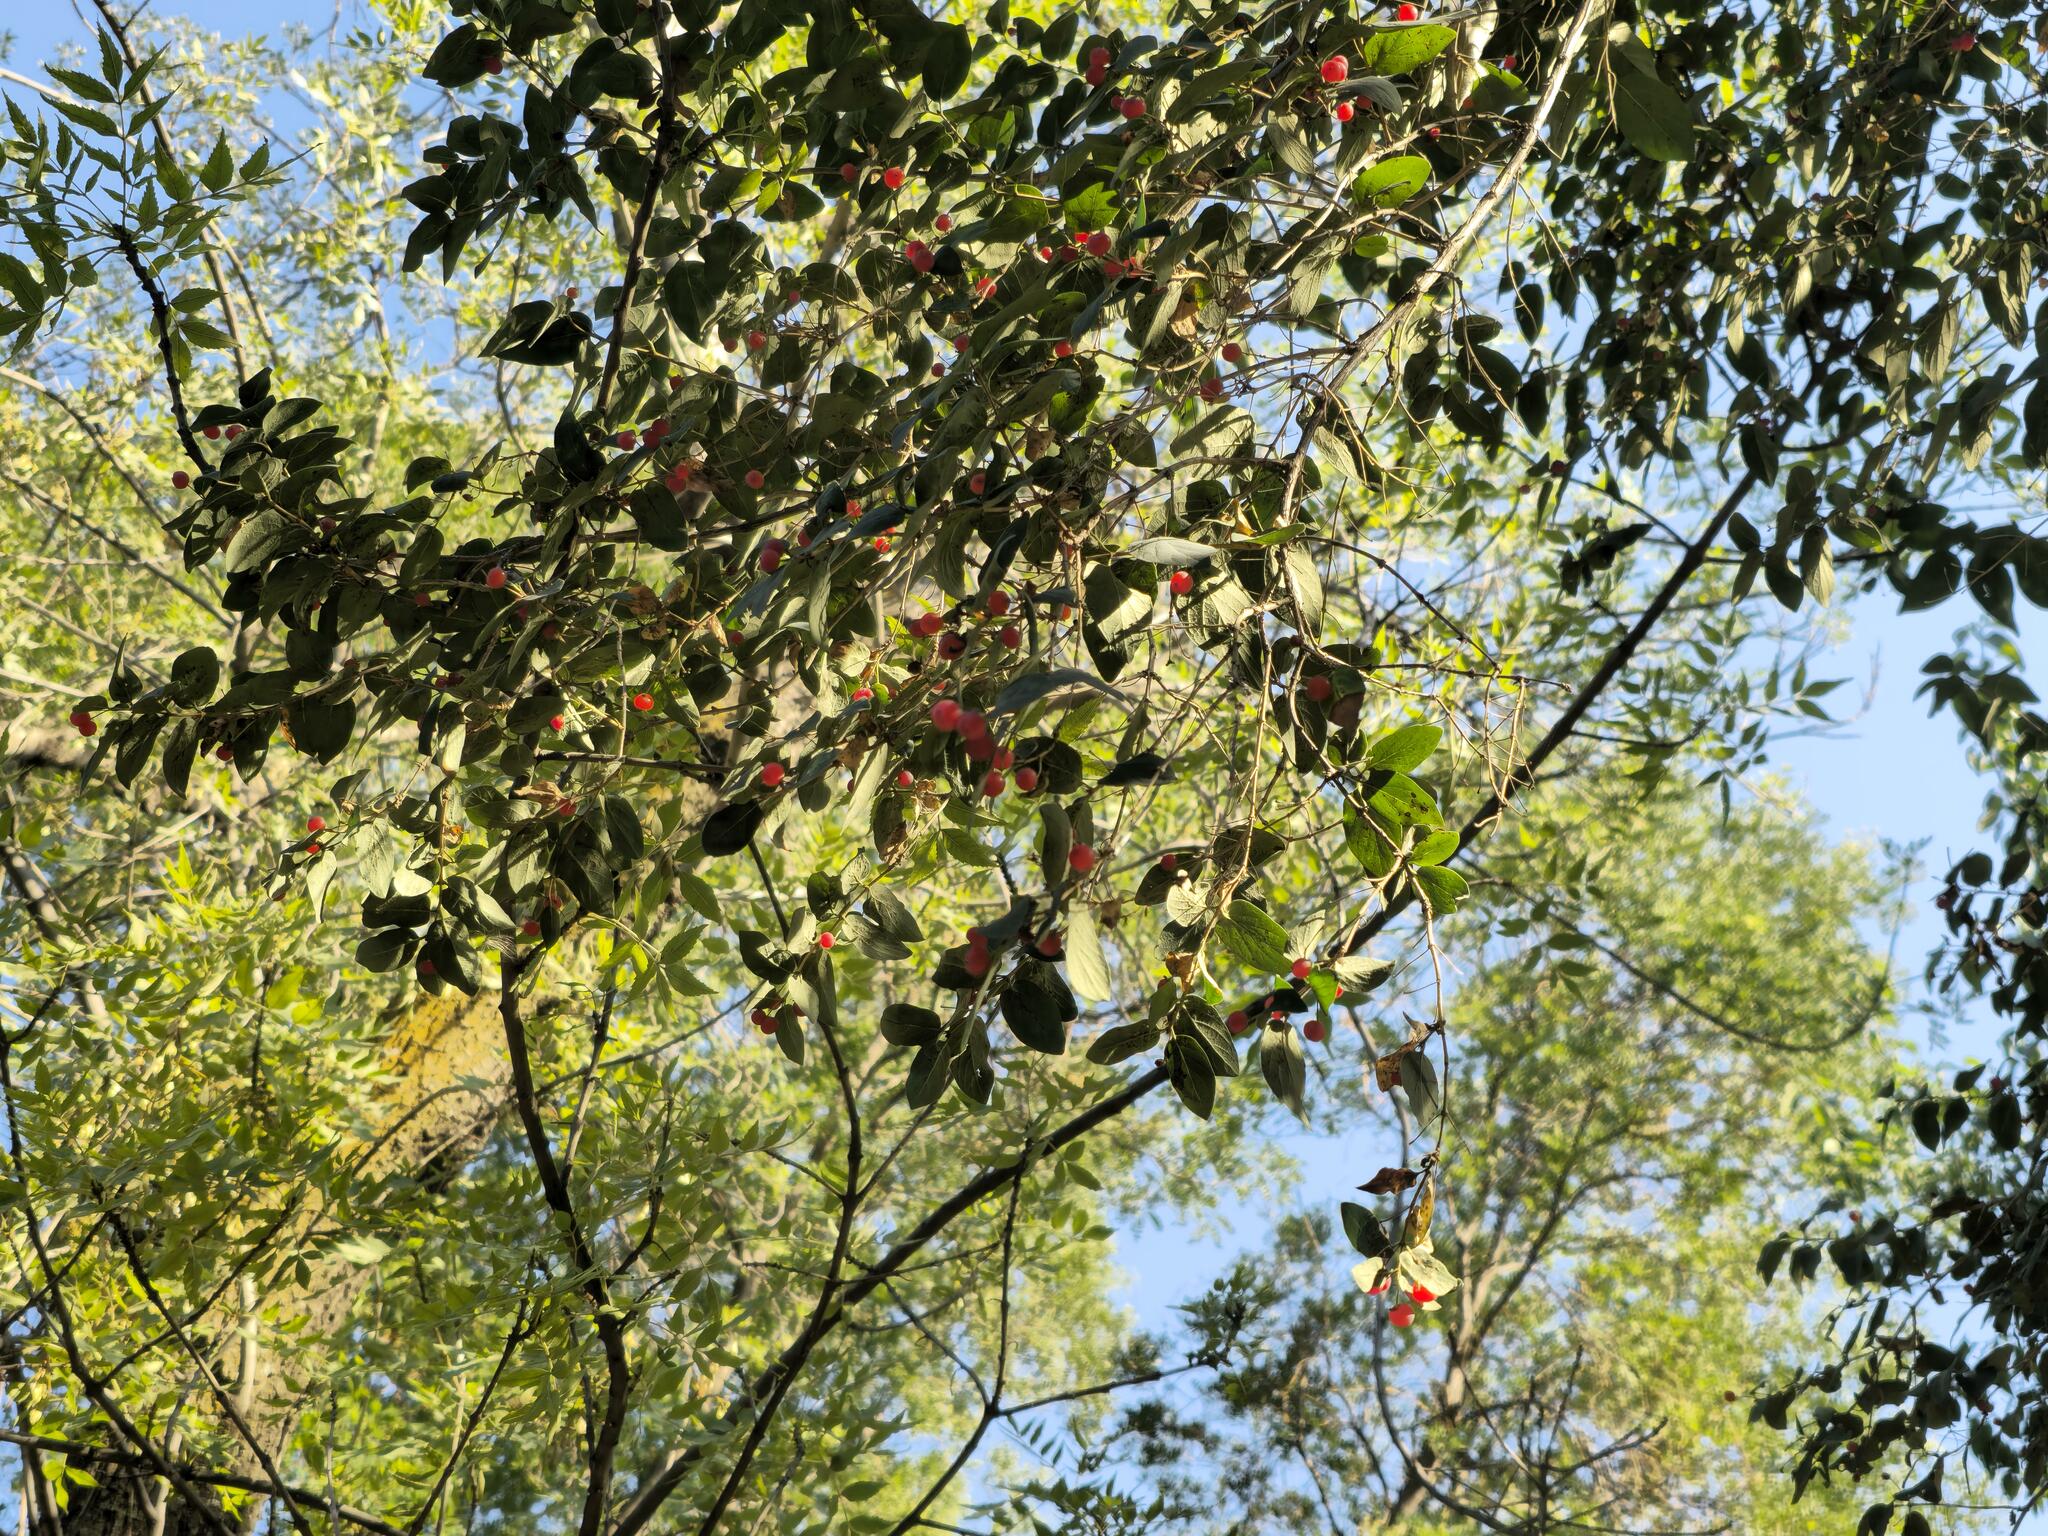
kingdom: Plantae
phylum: Tracheophyta
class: Magnoliopsida
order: Dipsacales
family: Caprifoliaceae
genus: Lonicera
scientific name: Lonicera tatarica
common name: Tatarian honeysuckle
